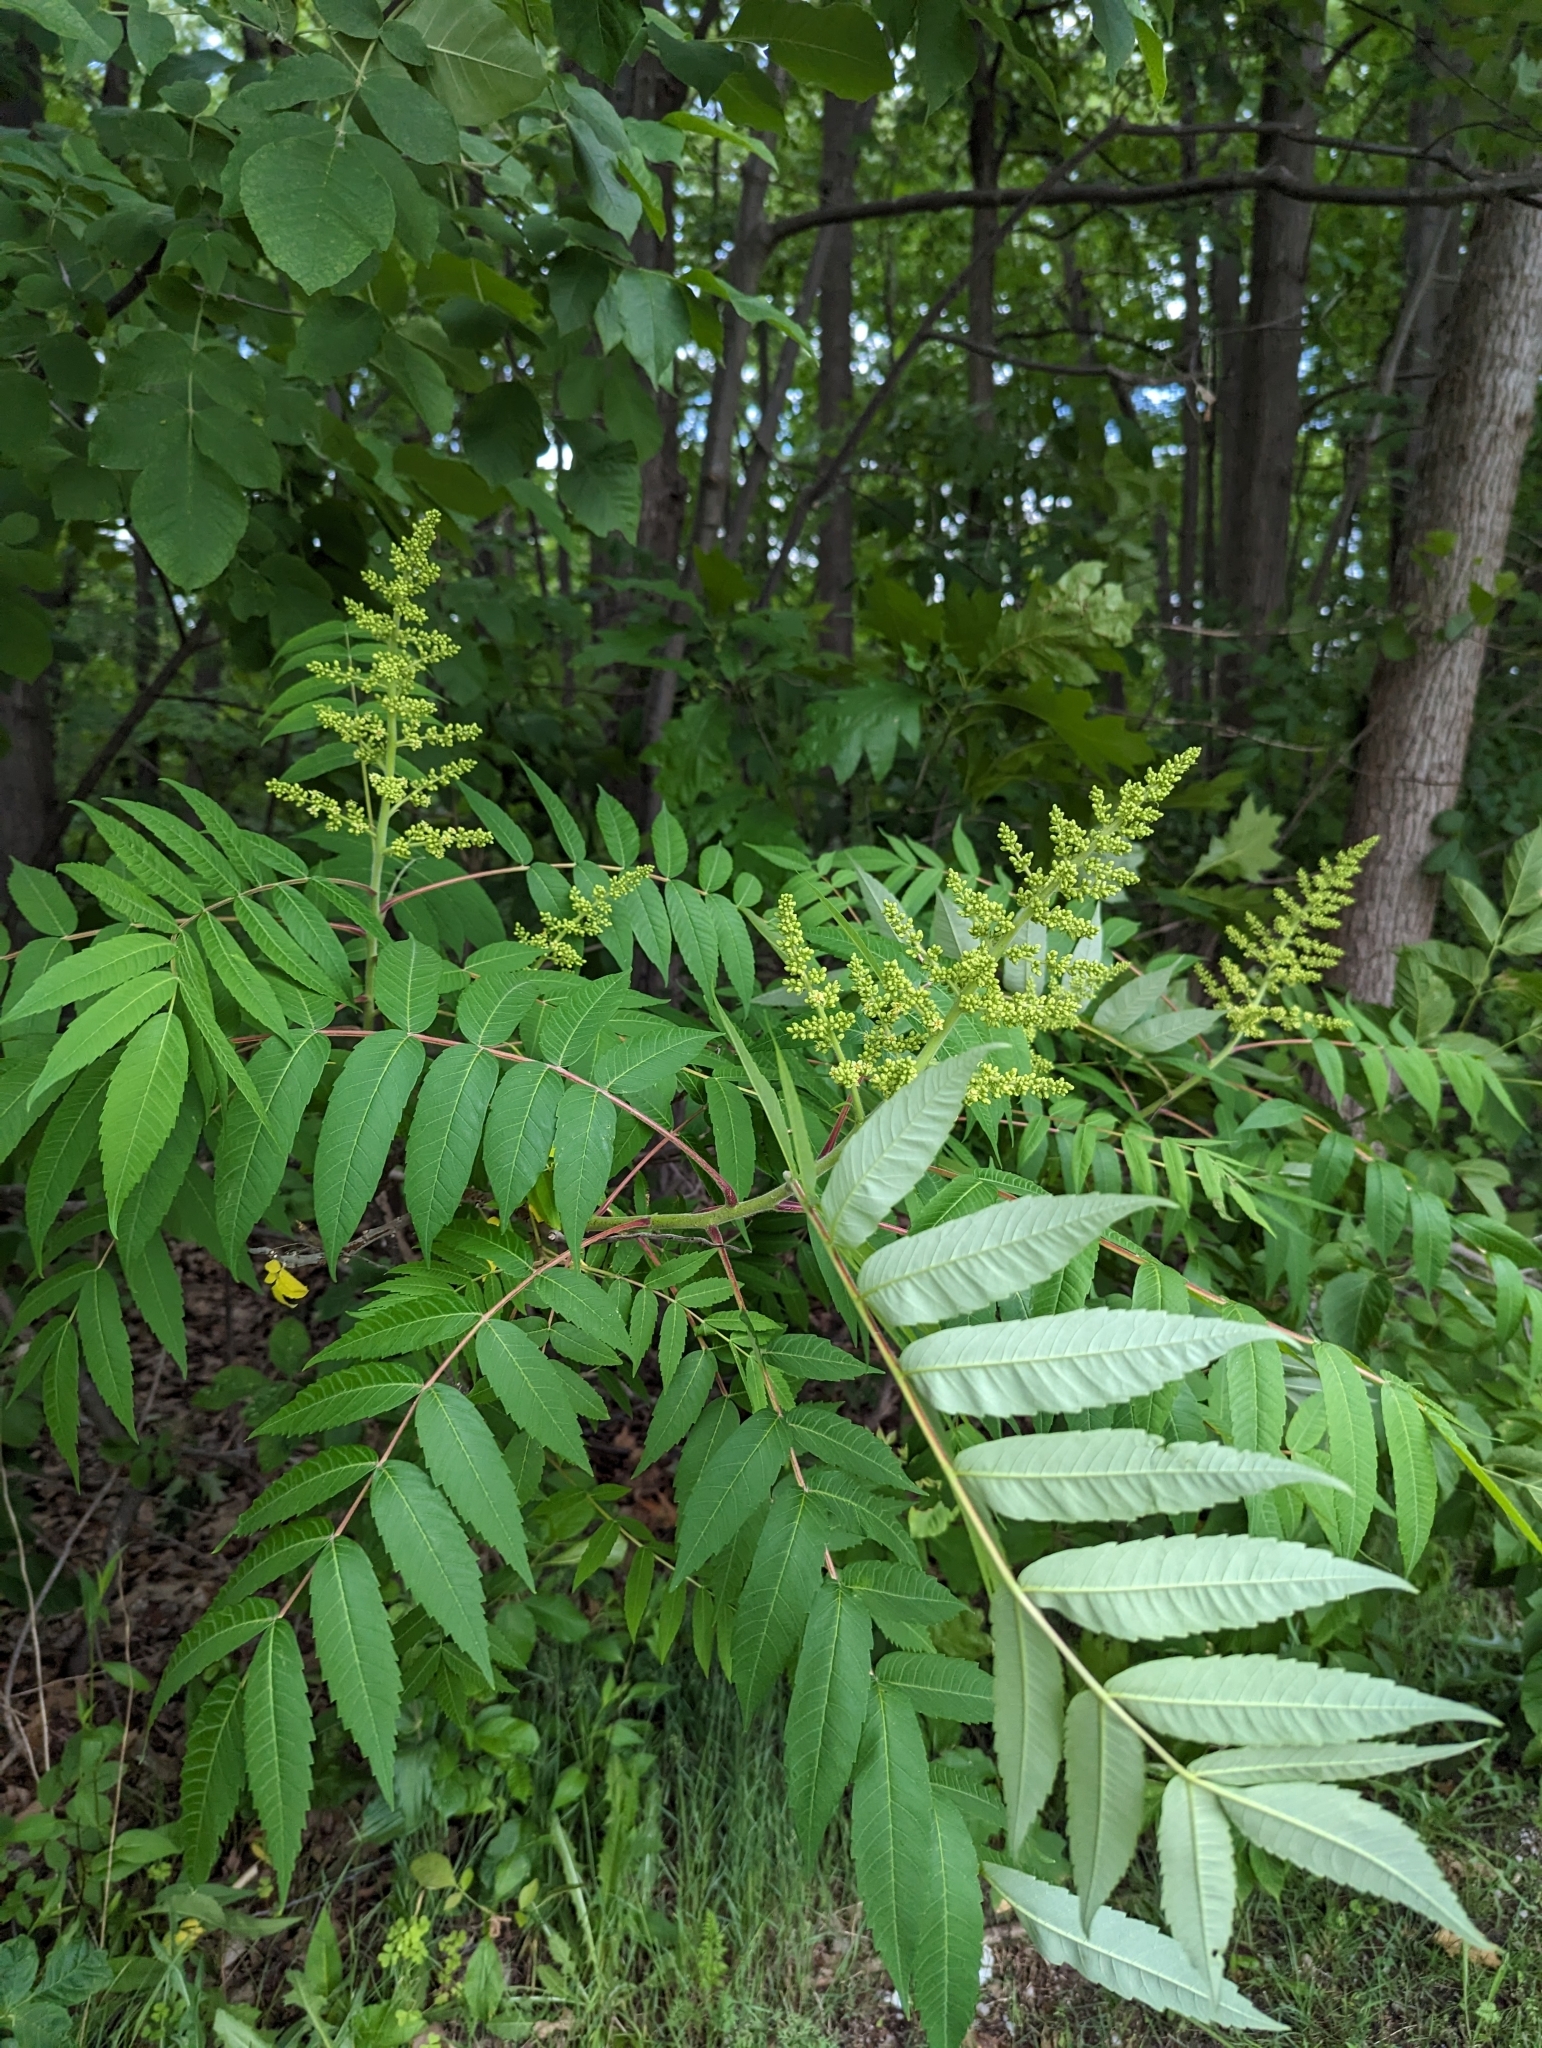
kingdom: Plantae
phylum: Tracheophyta
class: Magnoliopsida
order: Sapindales
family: Anacardiaceae
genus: Rhus
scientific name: Rhus typhina
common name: Staghorn sumac
